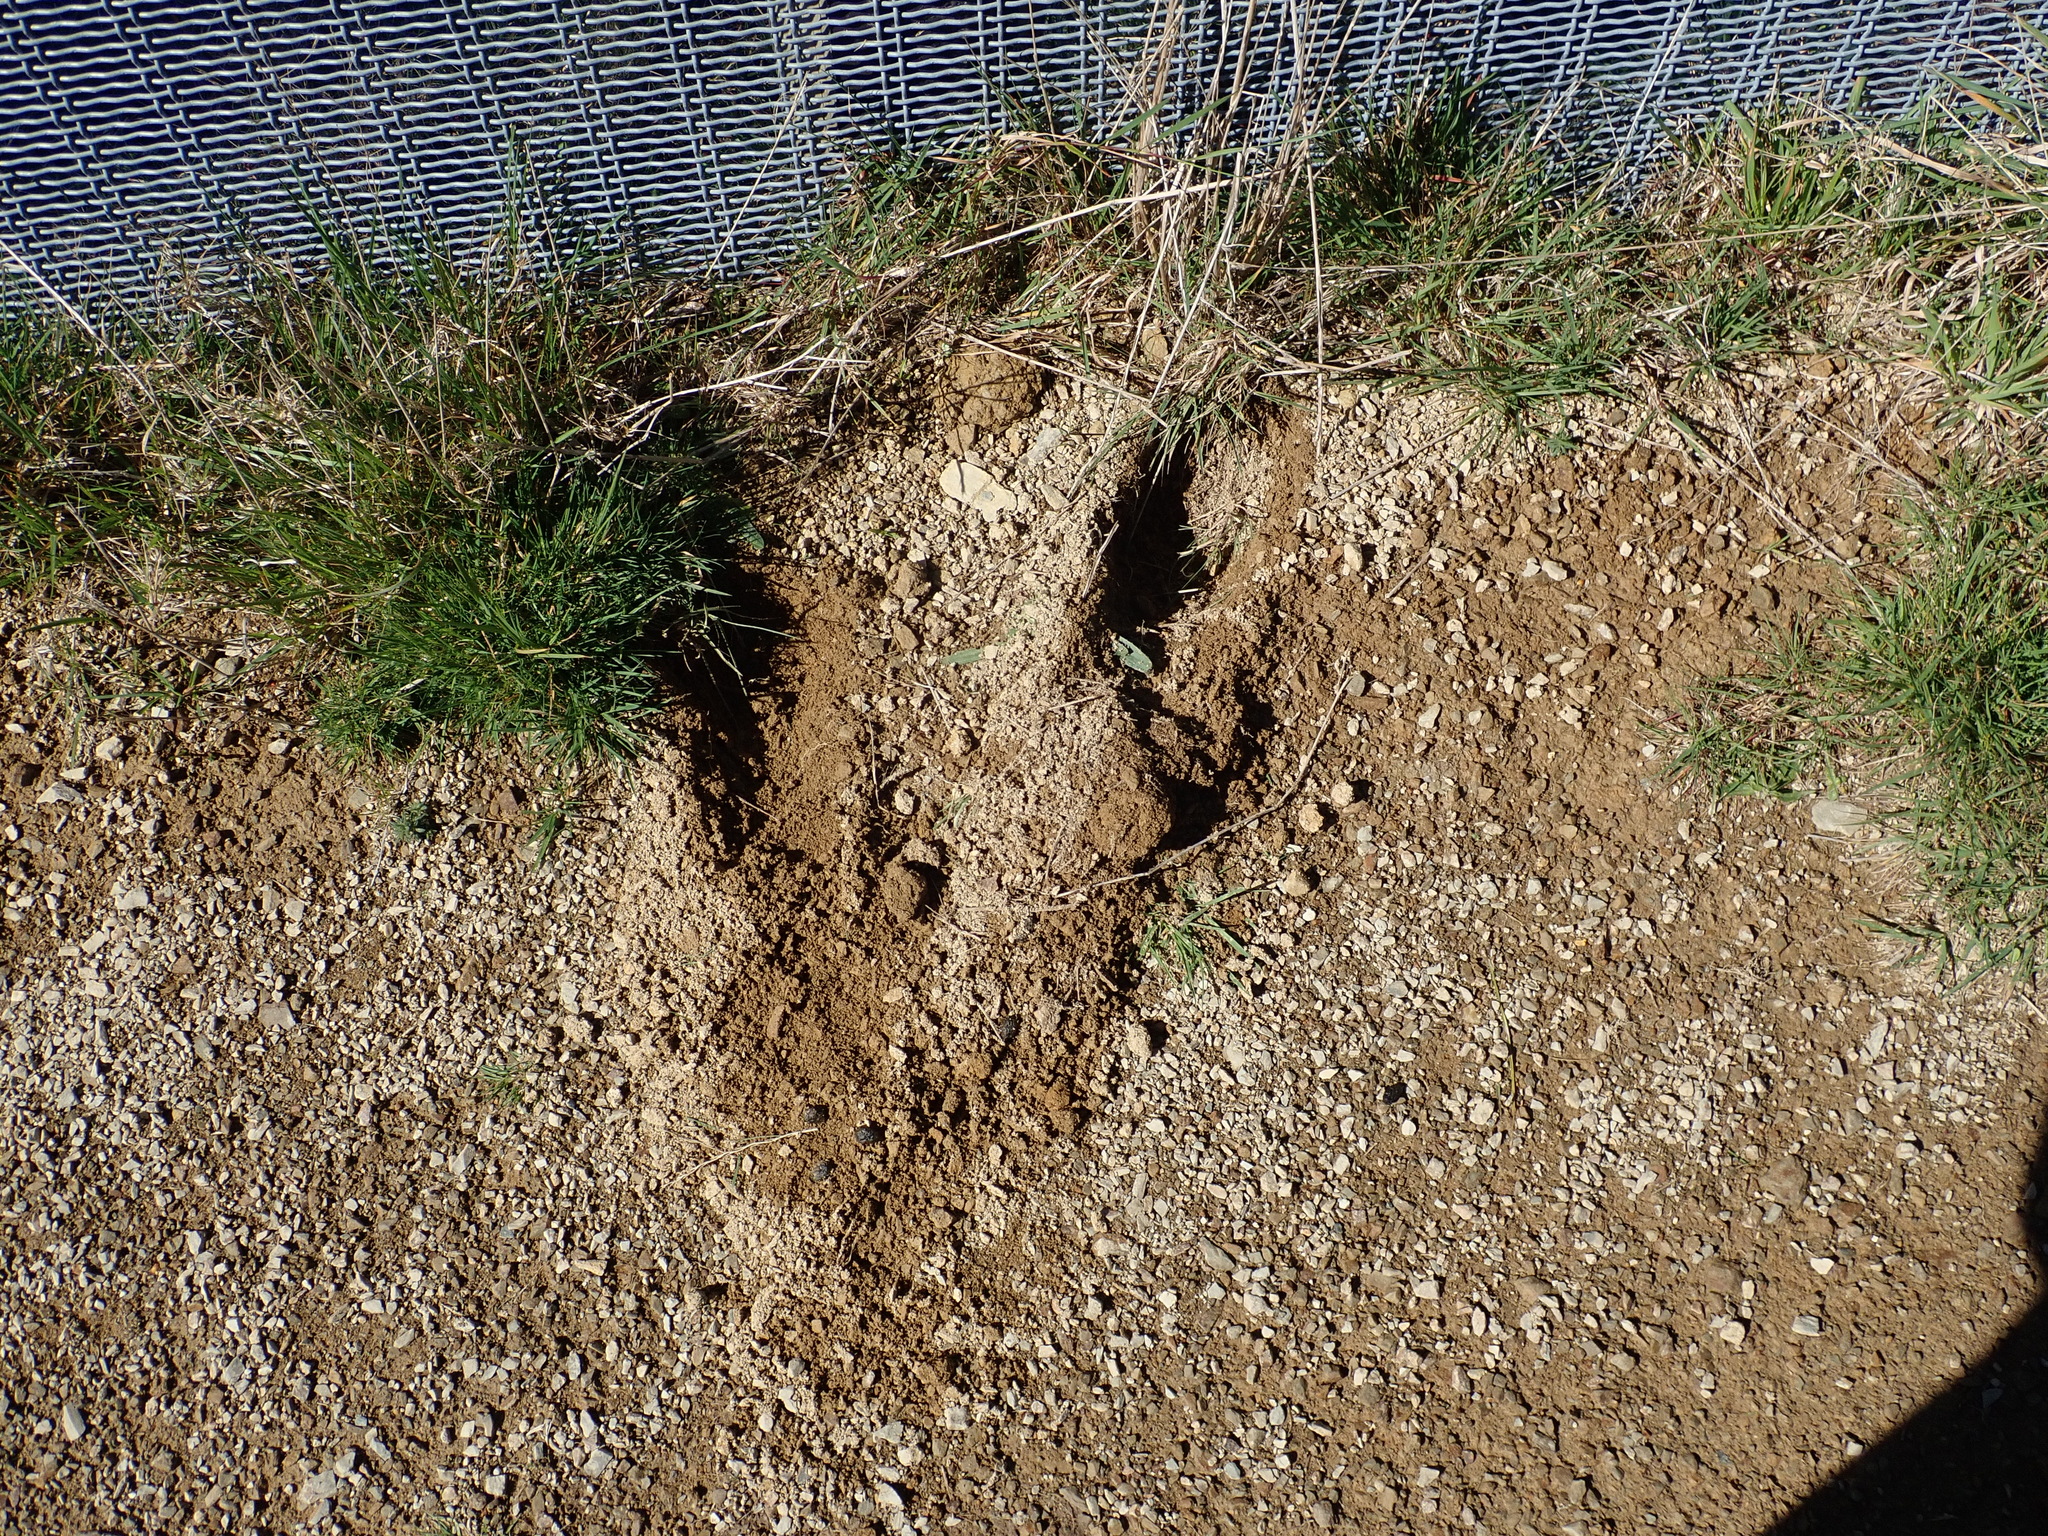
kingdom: Animalia
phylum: Chordata
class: Mammalia
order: Lagomorpha
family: Leporidae
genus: Oryctolagus
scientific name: Oryctolagus cuniculus
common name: European rabbit
